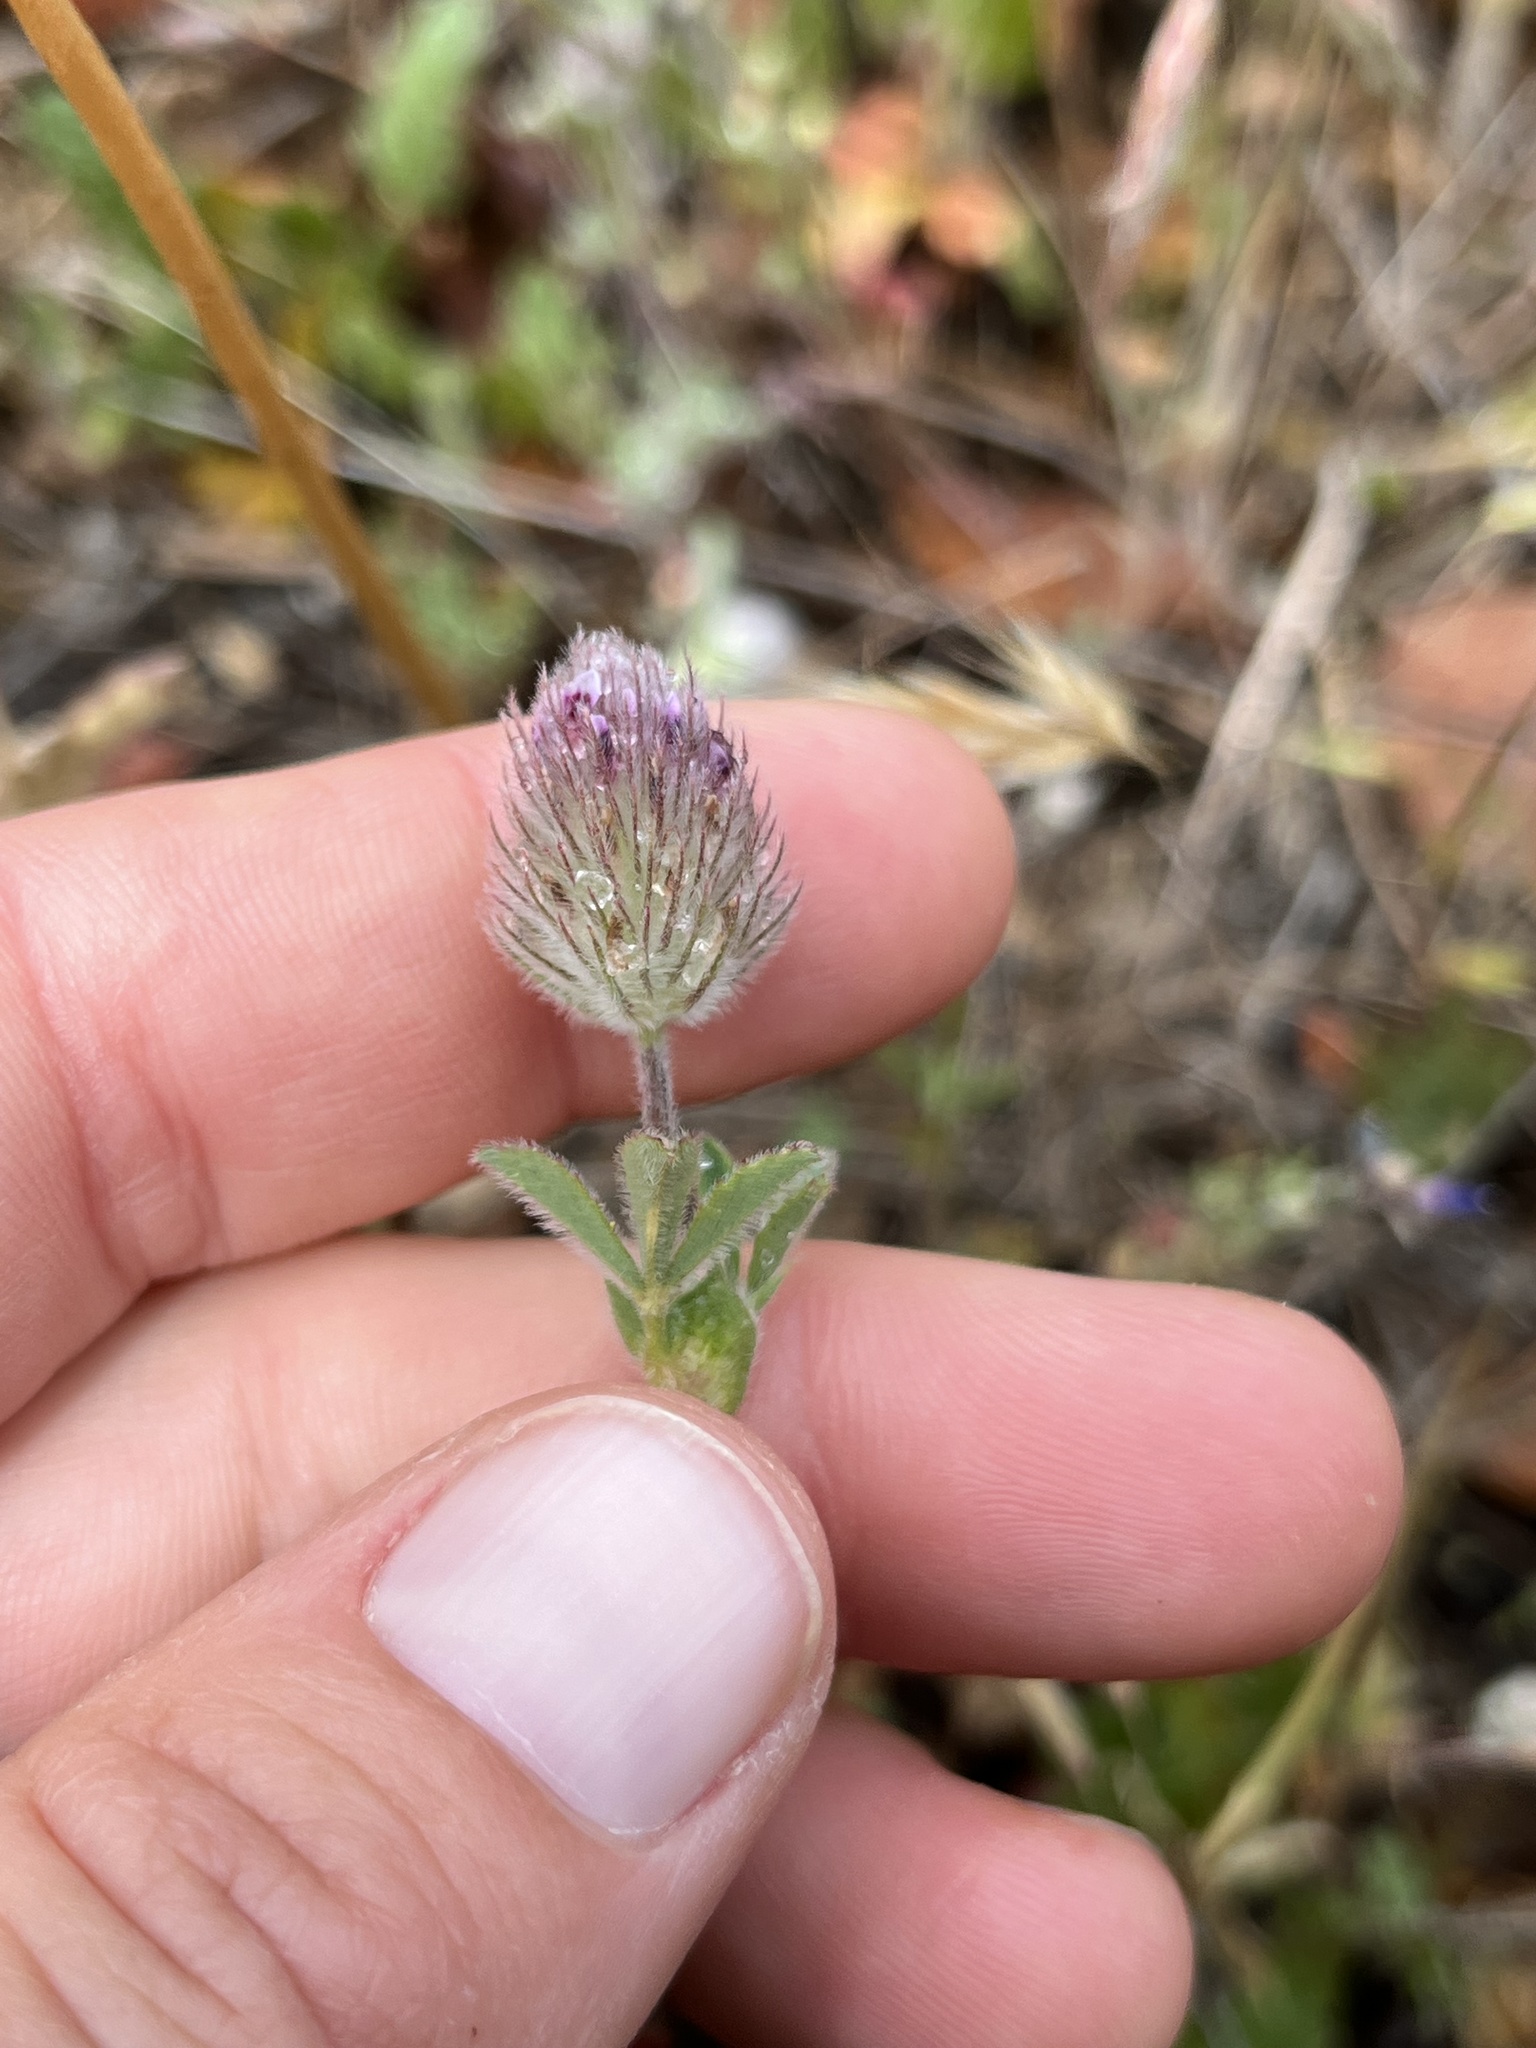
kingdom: Plantae
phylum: Tracheophyta
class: Magnoliopsida
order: Fabales
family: Fabaceae
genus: Trifolium
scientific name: Trifolium albopurpureum
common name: Rancheria clover
